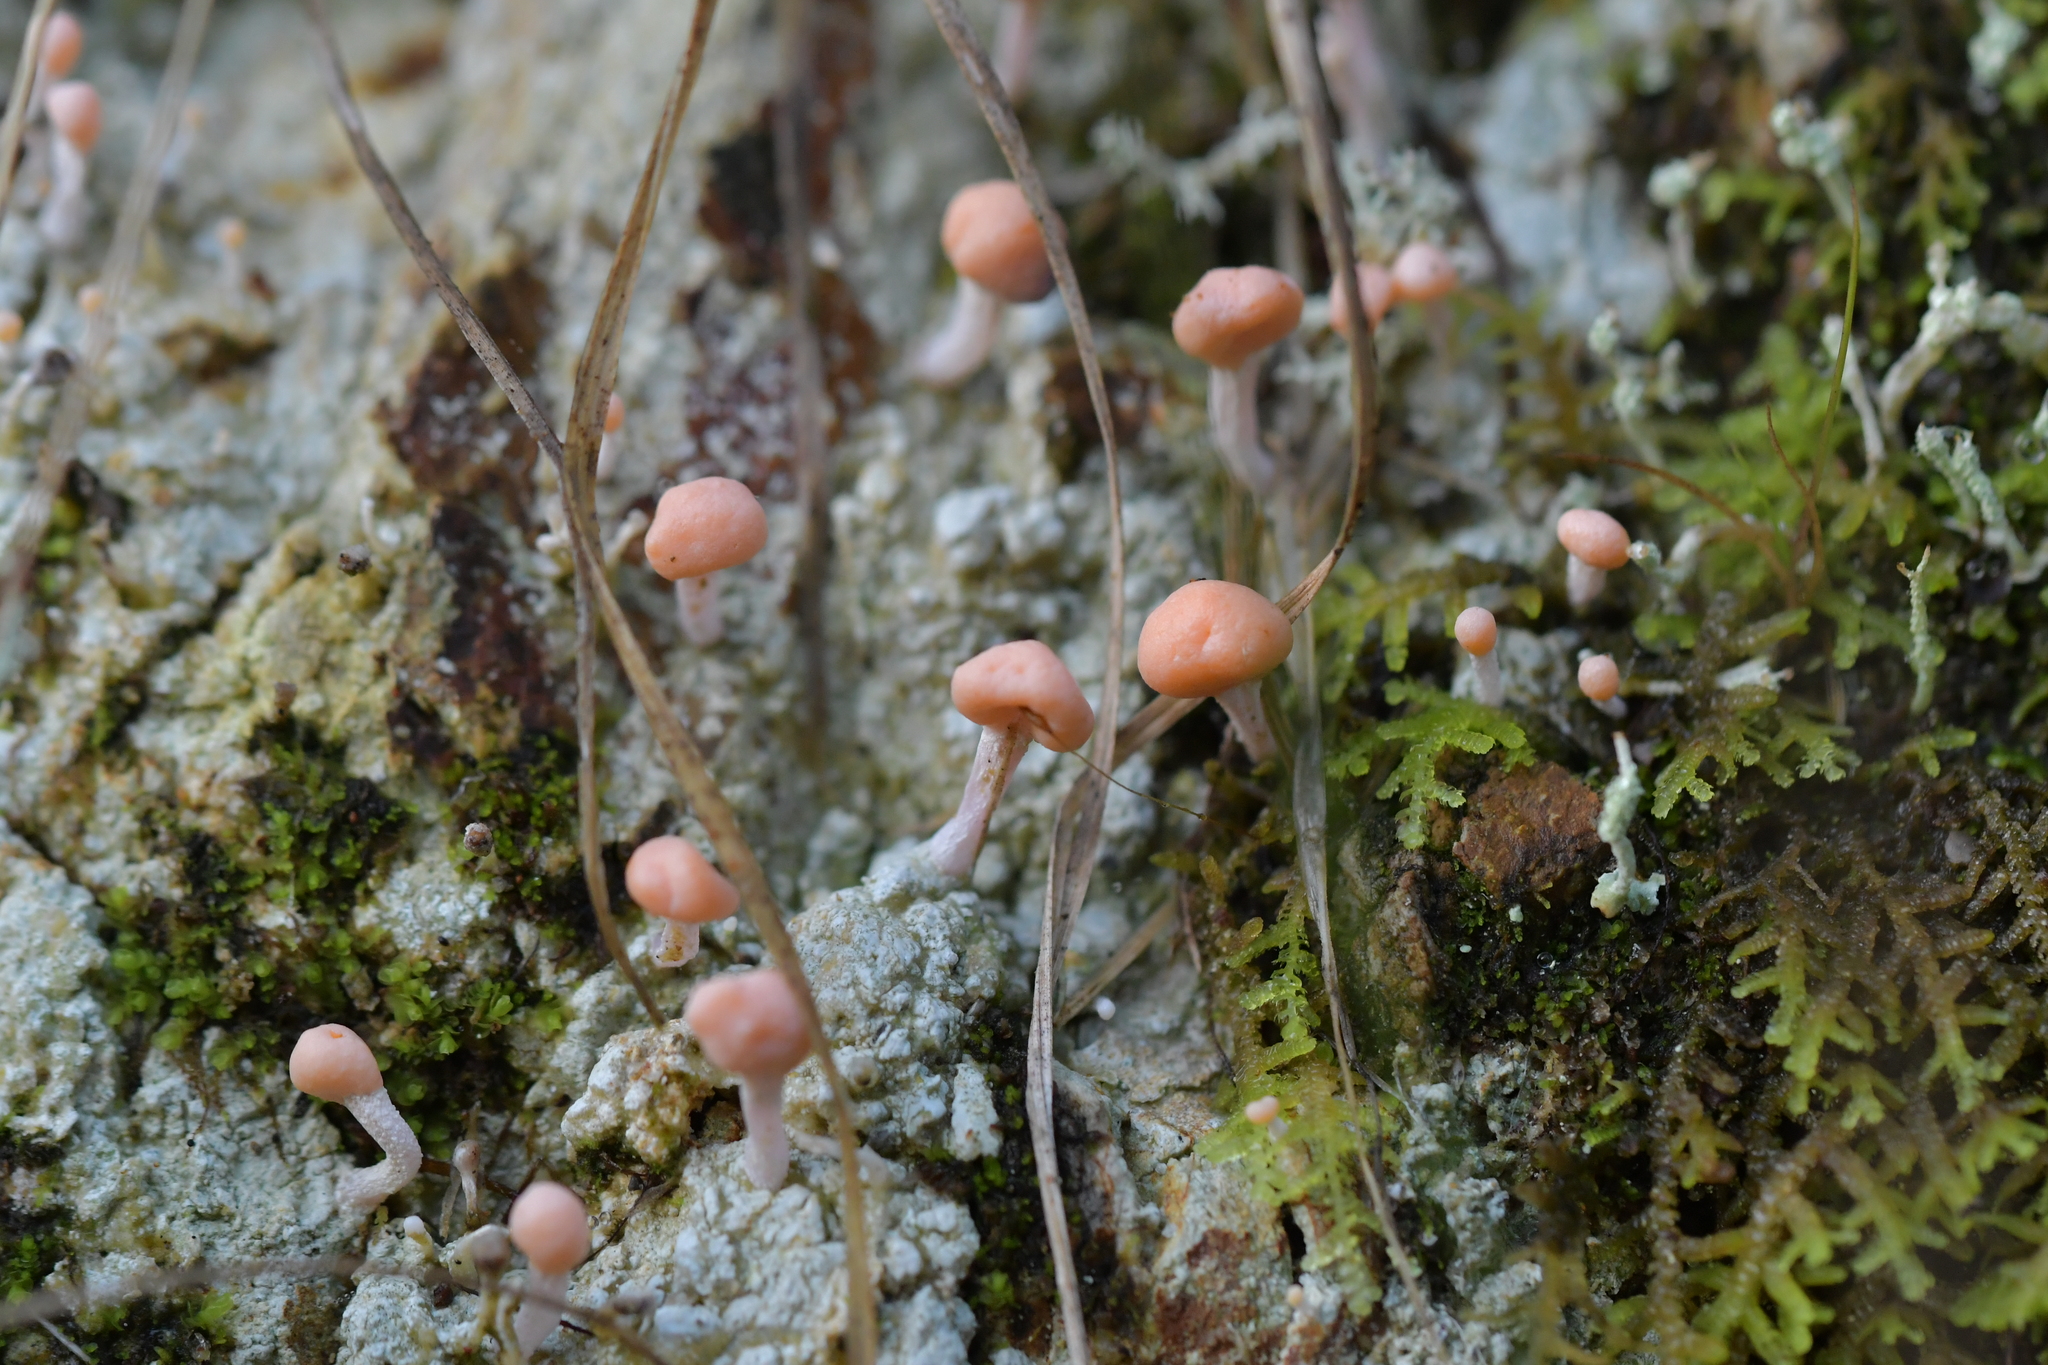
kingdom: Fungi
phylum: Ascomycota
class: Lecanoromycetes
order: Pertusariales
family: Icmadophilaceae
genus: Dibaeis
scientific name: Dibaeis arcuata
